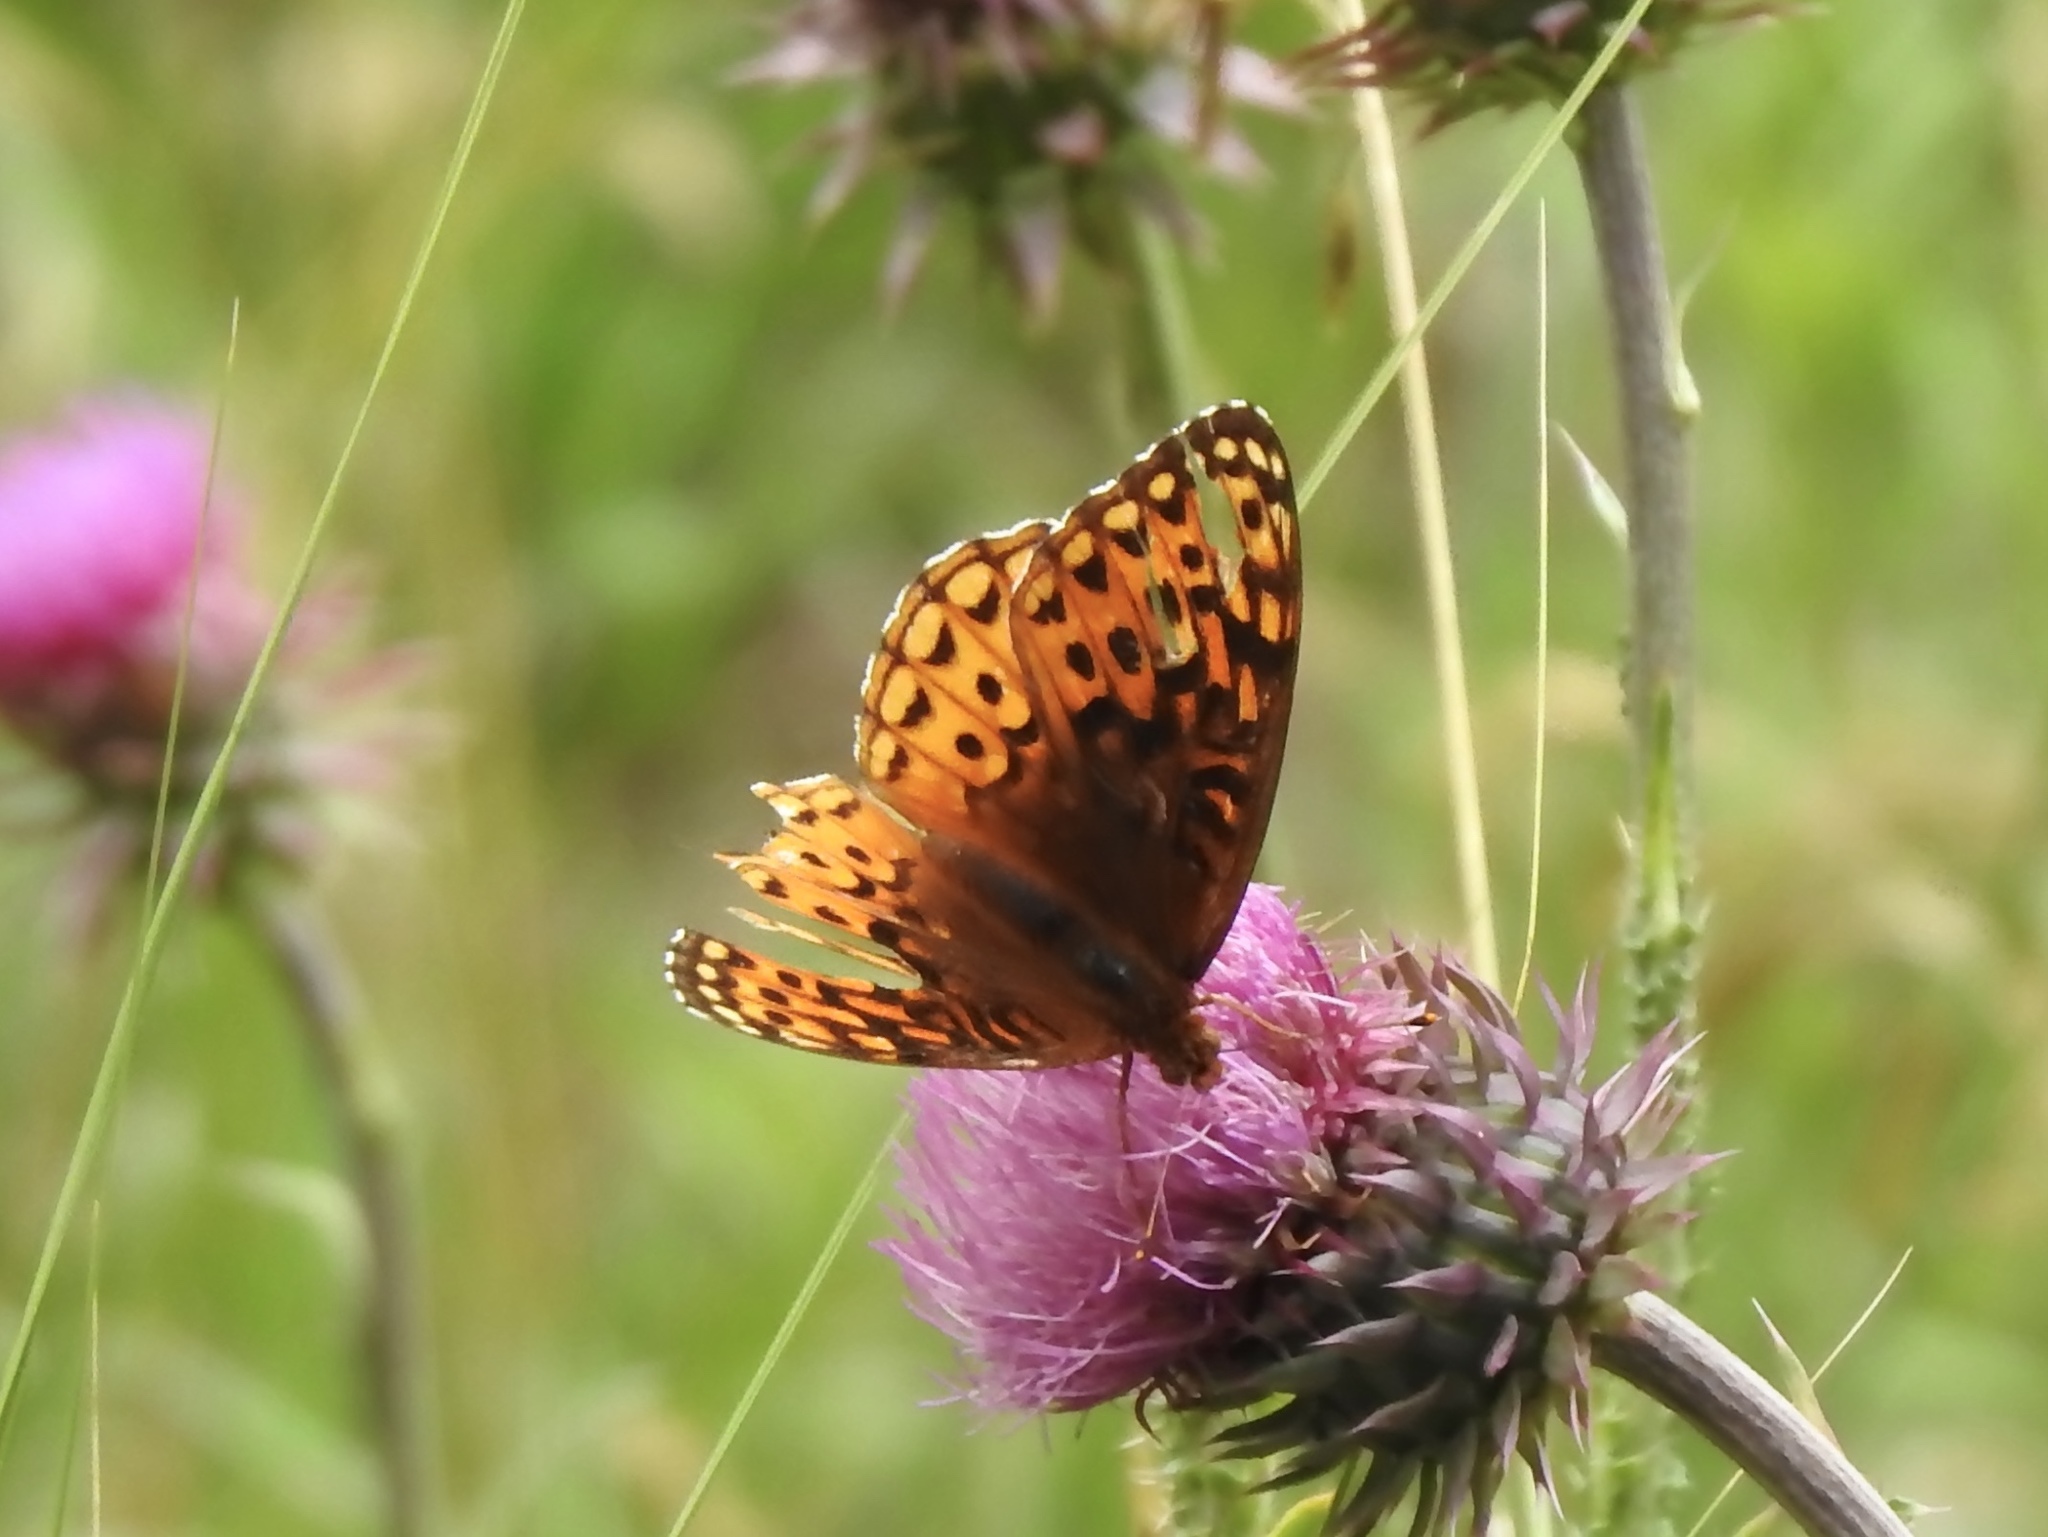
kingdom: Animalia
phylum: Arthropoda
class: Insecta
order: Lepidoptera
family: Nymphalidae
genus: Speyeria
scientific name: Speyeria atlantis
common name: Atlantis fritillary
